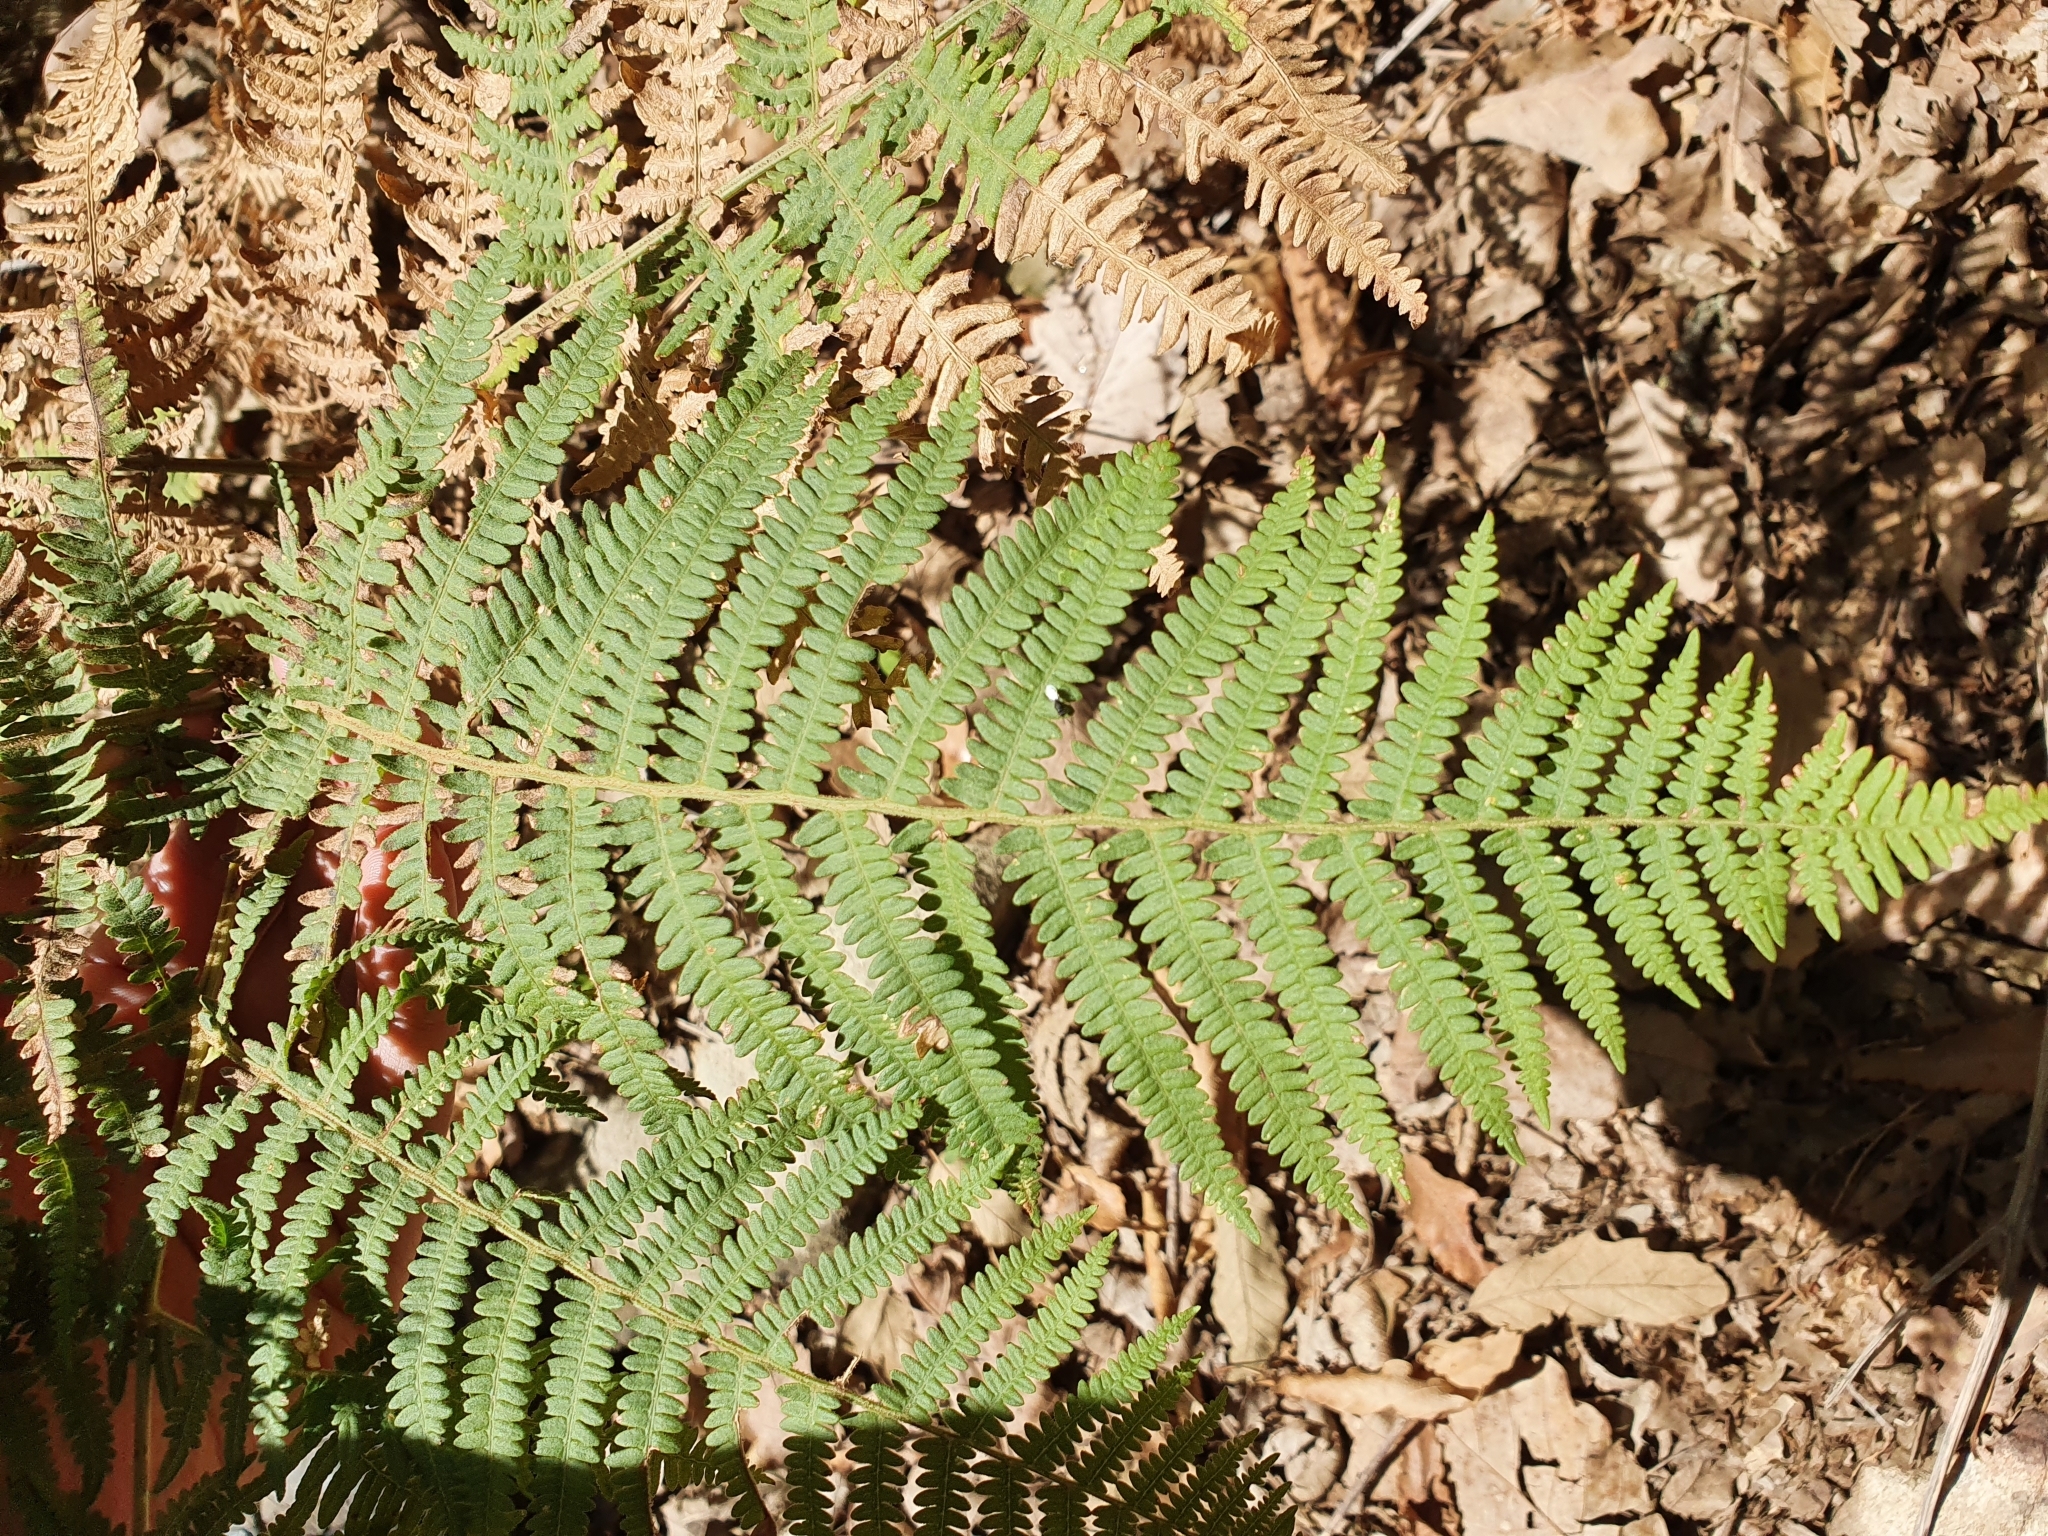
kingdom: Plantae
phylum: Tracheophyta
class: Polypodiopsida
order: Polypodiales
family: Dennstaedtiaceae
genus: Pteridium
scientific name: Pteridium aquilinum
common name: Bracken
